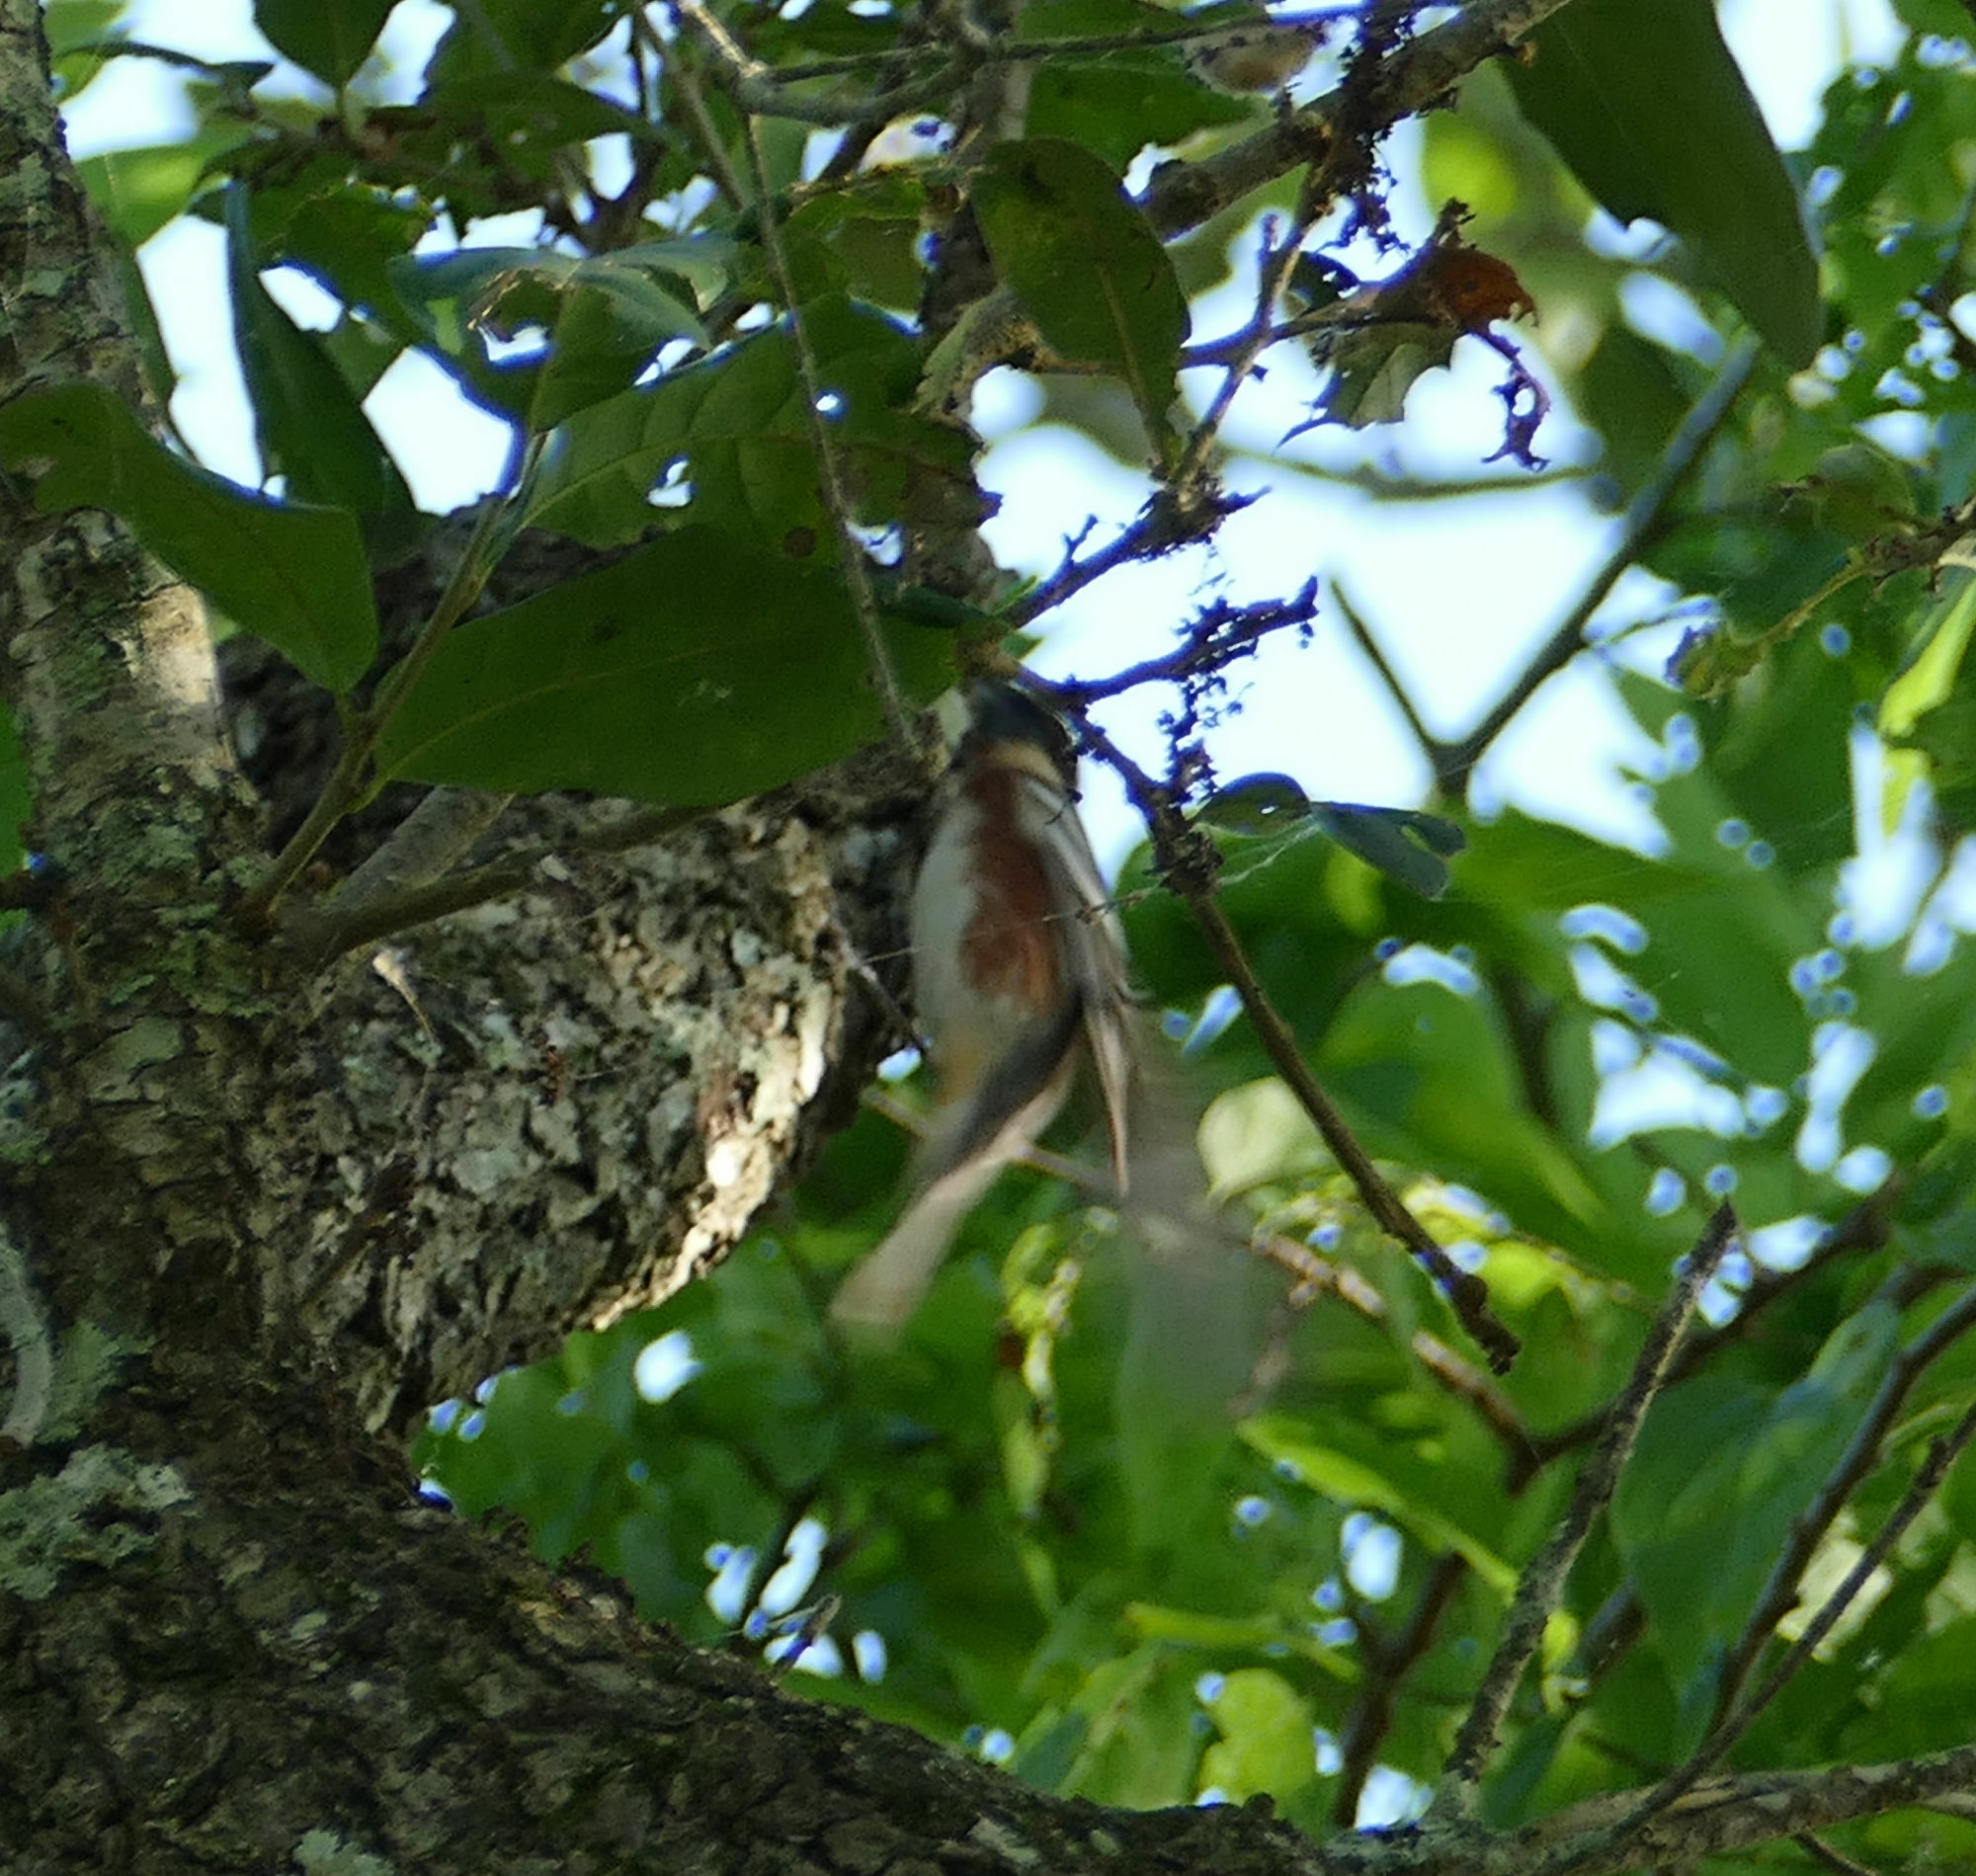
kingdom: Animalia
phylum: Chordata
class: Aves
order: Passeriformes
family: Parulidae
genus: Setophaga
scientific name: Setophaga castanea
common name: Bay-breasted warbler
